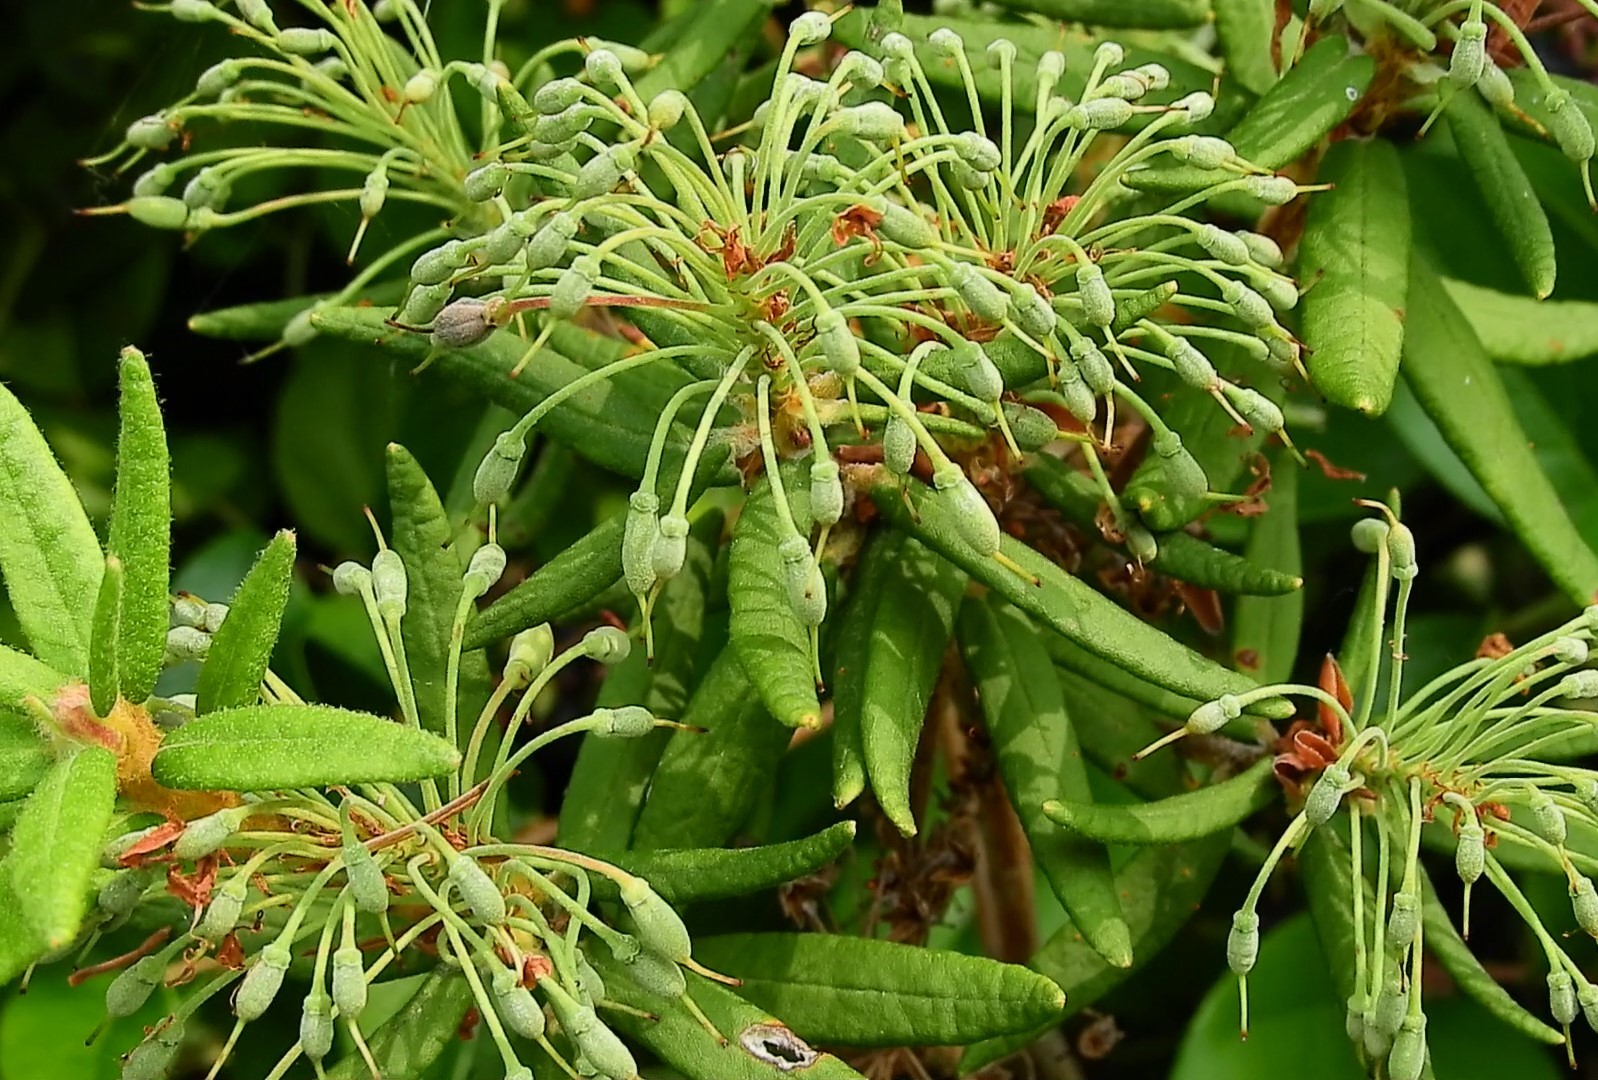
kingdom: Plantae
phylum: Tracheophyta
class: Magnoliopsida
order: Ericales
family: Ericaceae
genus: Rhododendron
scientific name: Rhododendron groenlandicum
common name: Bog labrador tea
